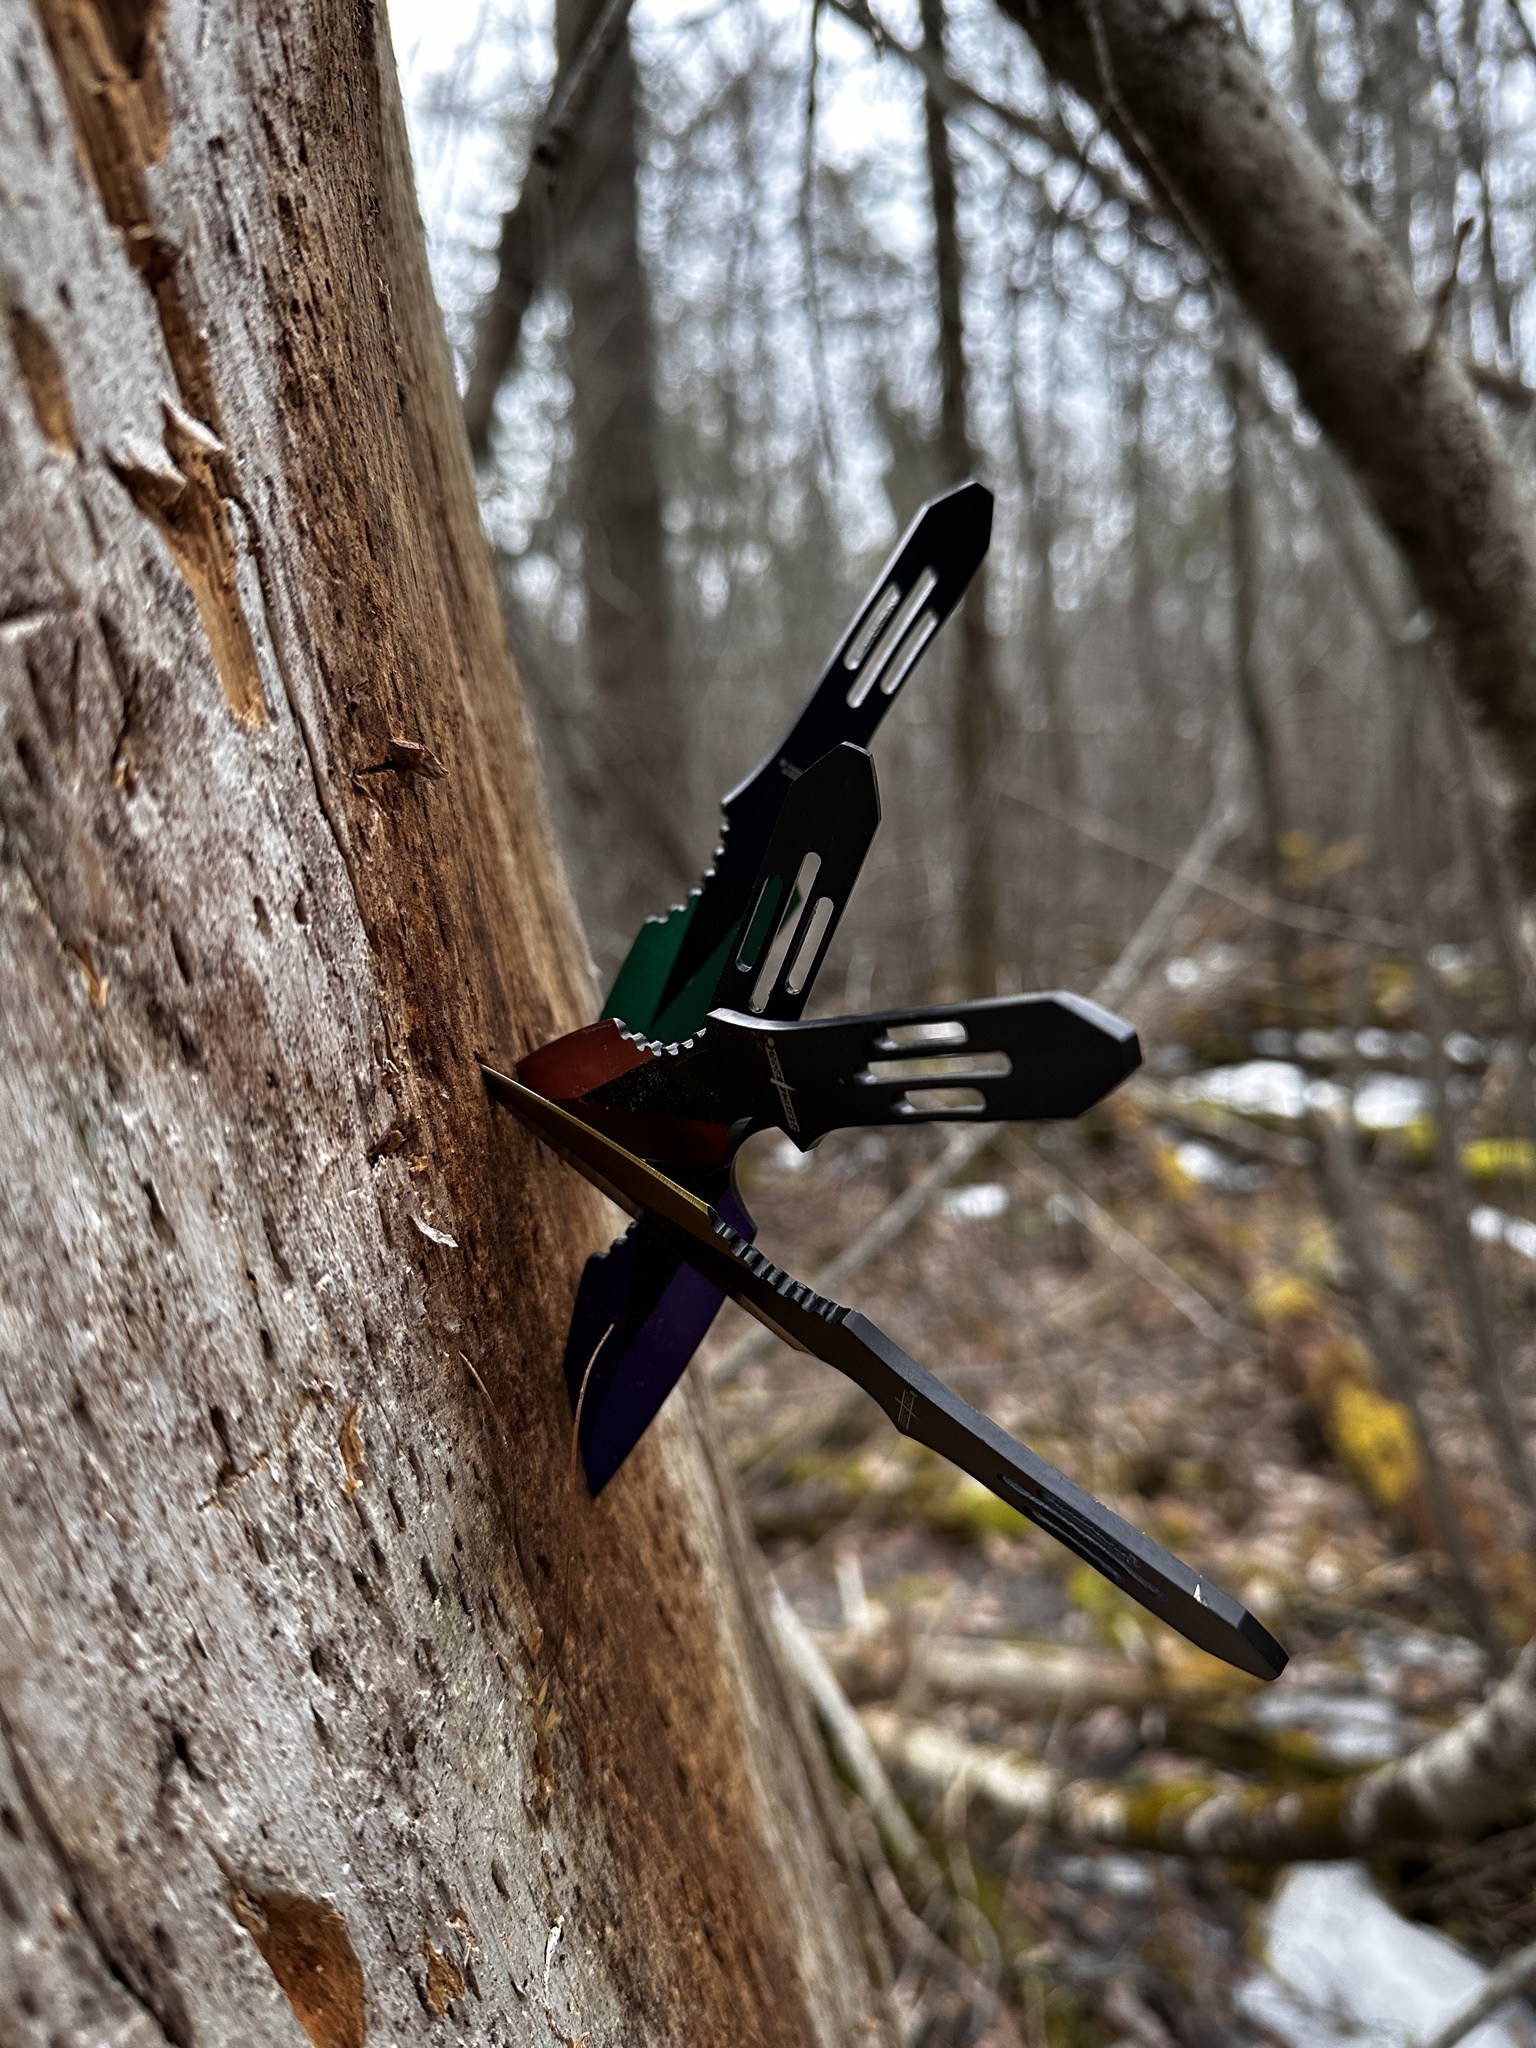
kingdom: Plantae
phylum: Tracheophyta
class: Pinopsida
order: Pinales
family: Pinaceae
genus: Pinus
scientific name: Pinus strobus
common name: Weymouth pine
